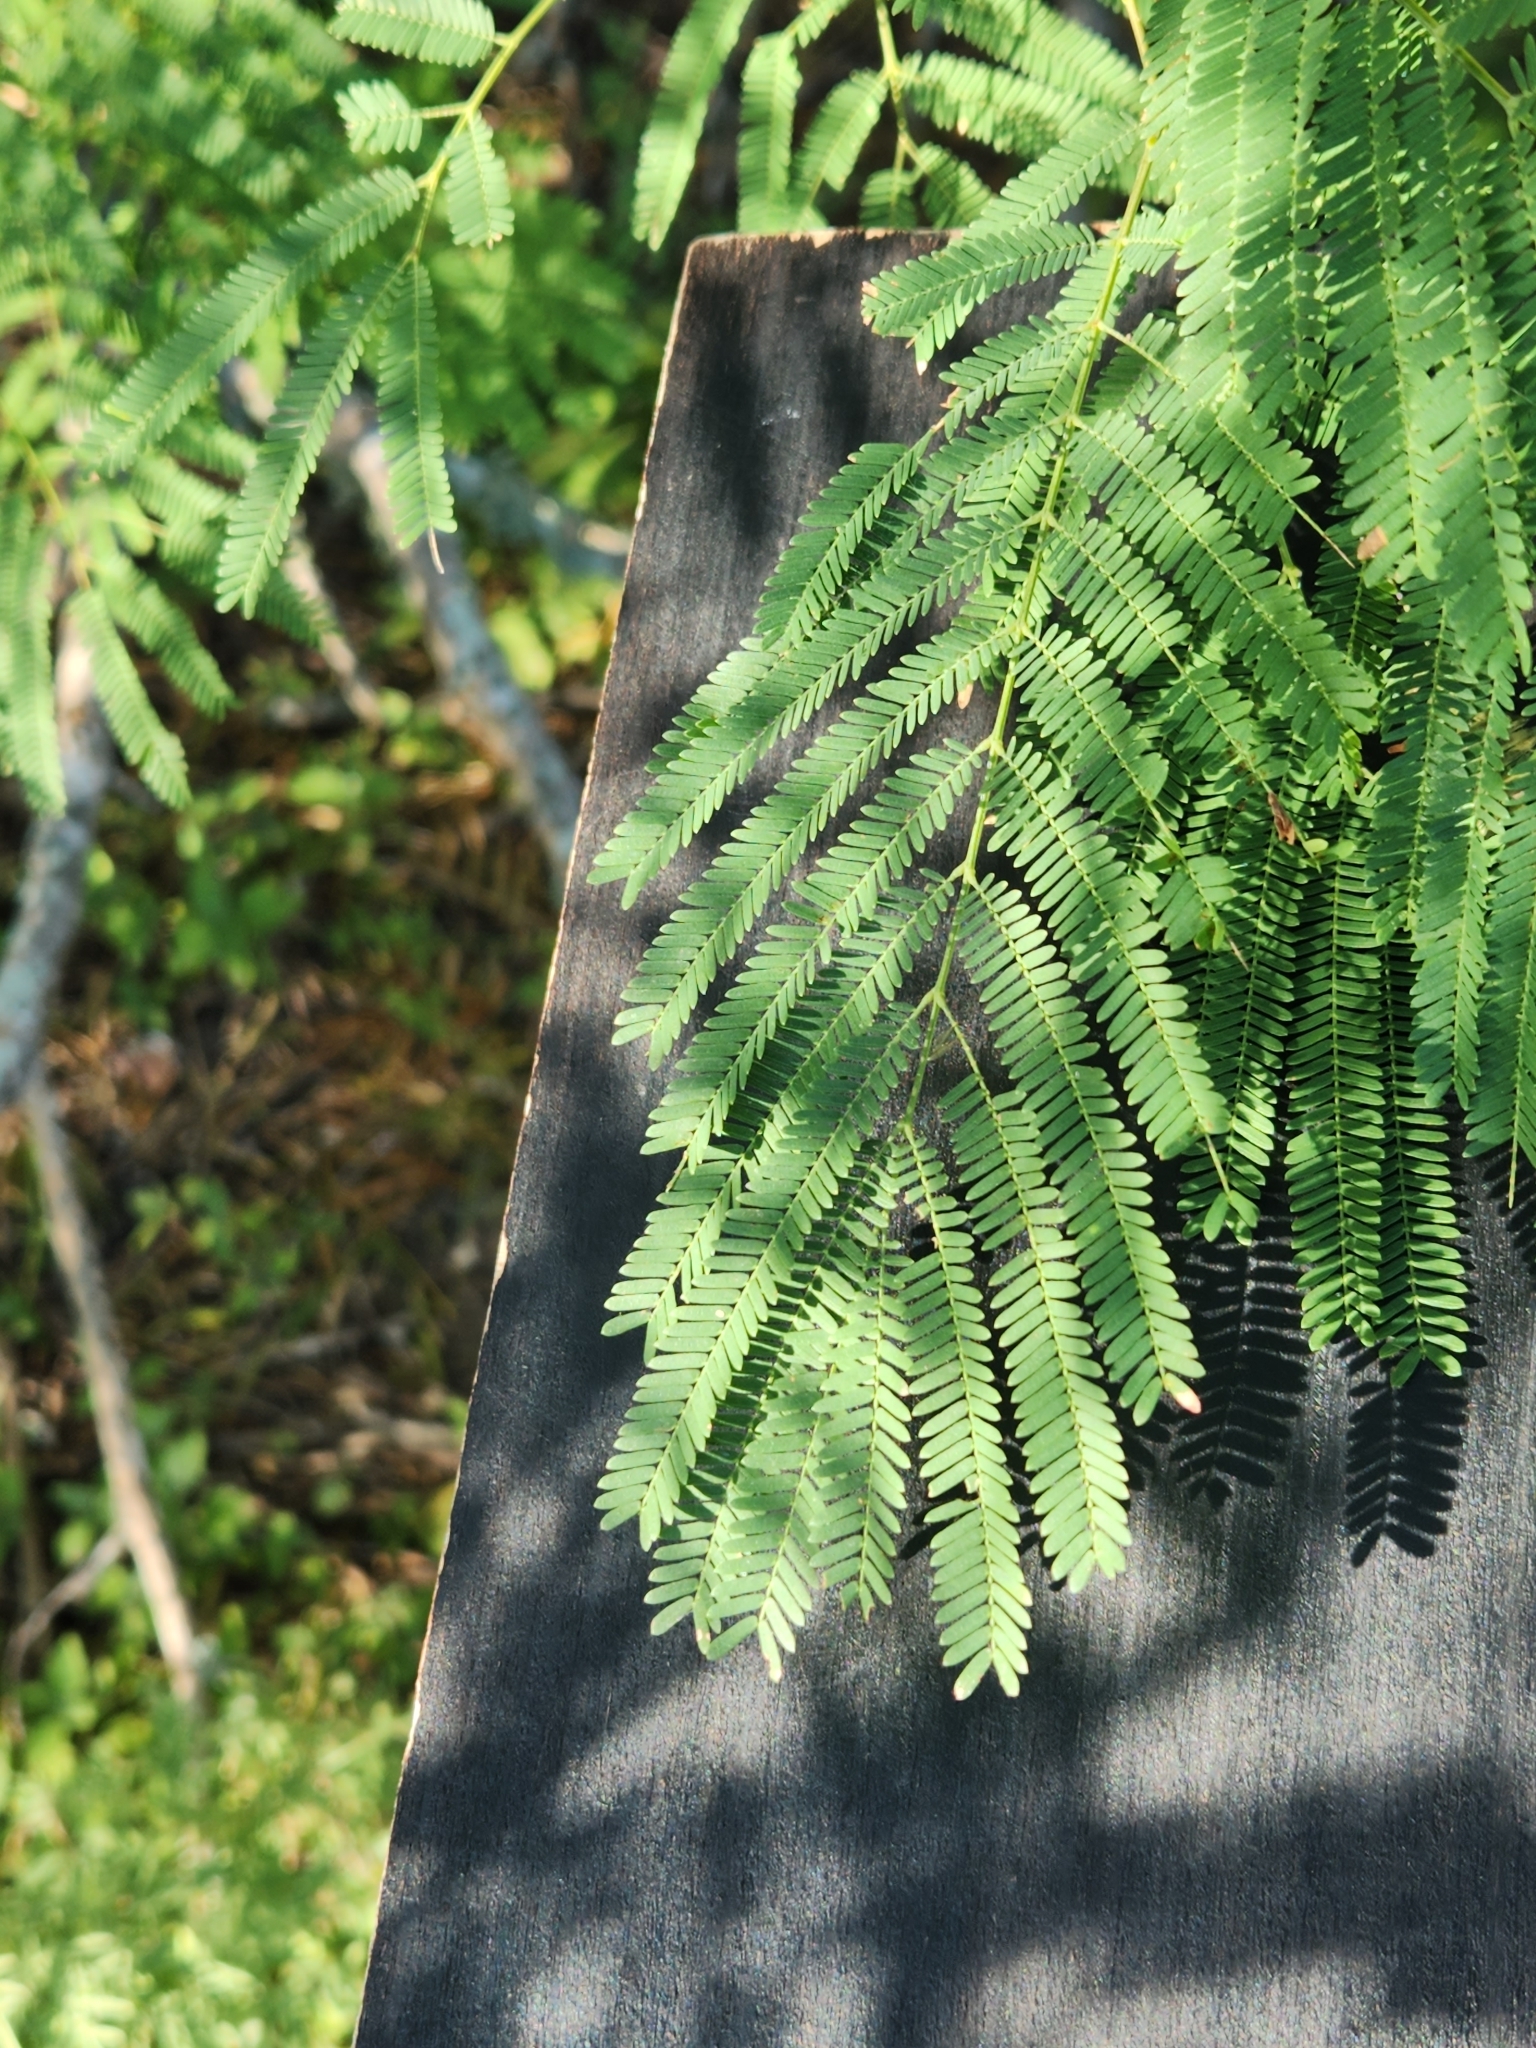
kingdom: Plantae
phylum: Tracheophyta
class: Magnoliopsida
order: Fabales
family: Fabaceae
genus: Senegalia
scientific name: Senegalia berlandieri
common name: Berlandier acacia
